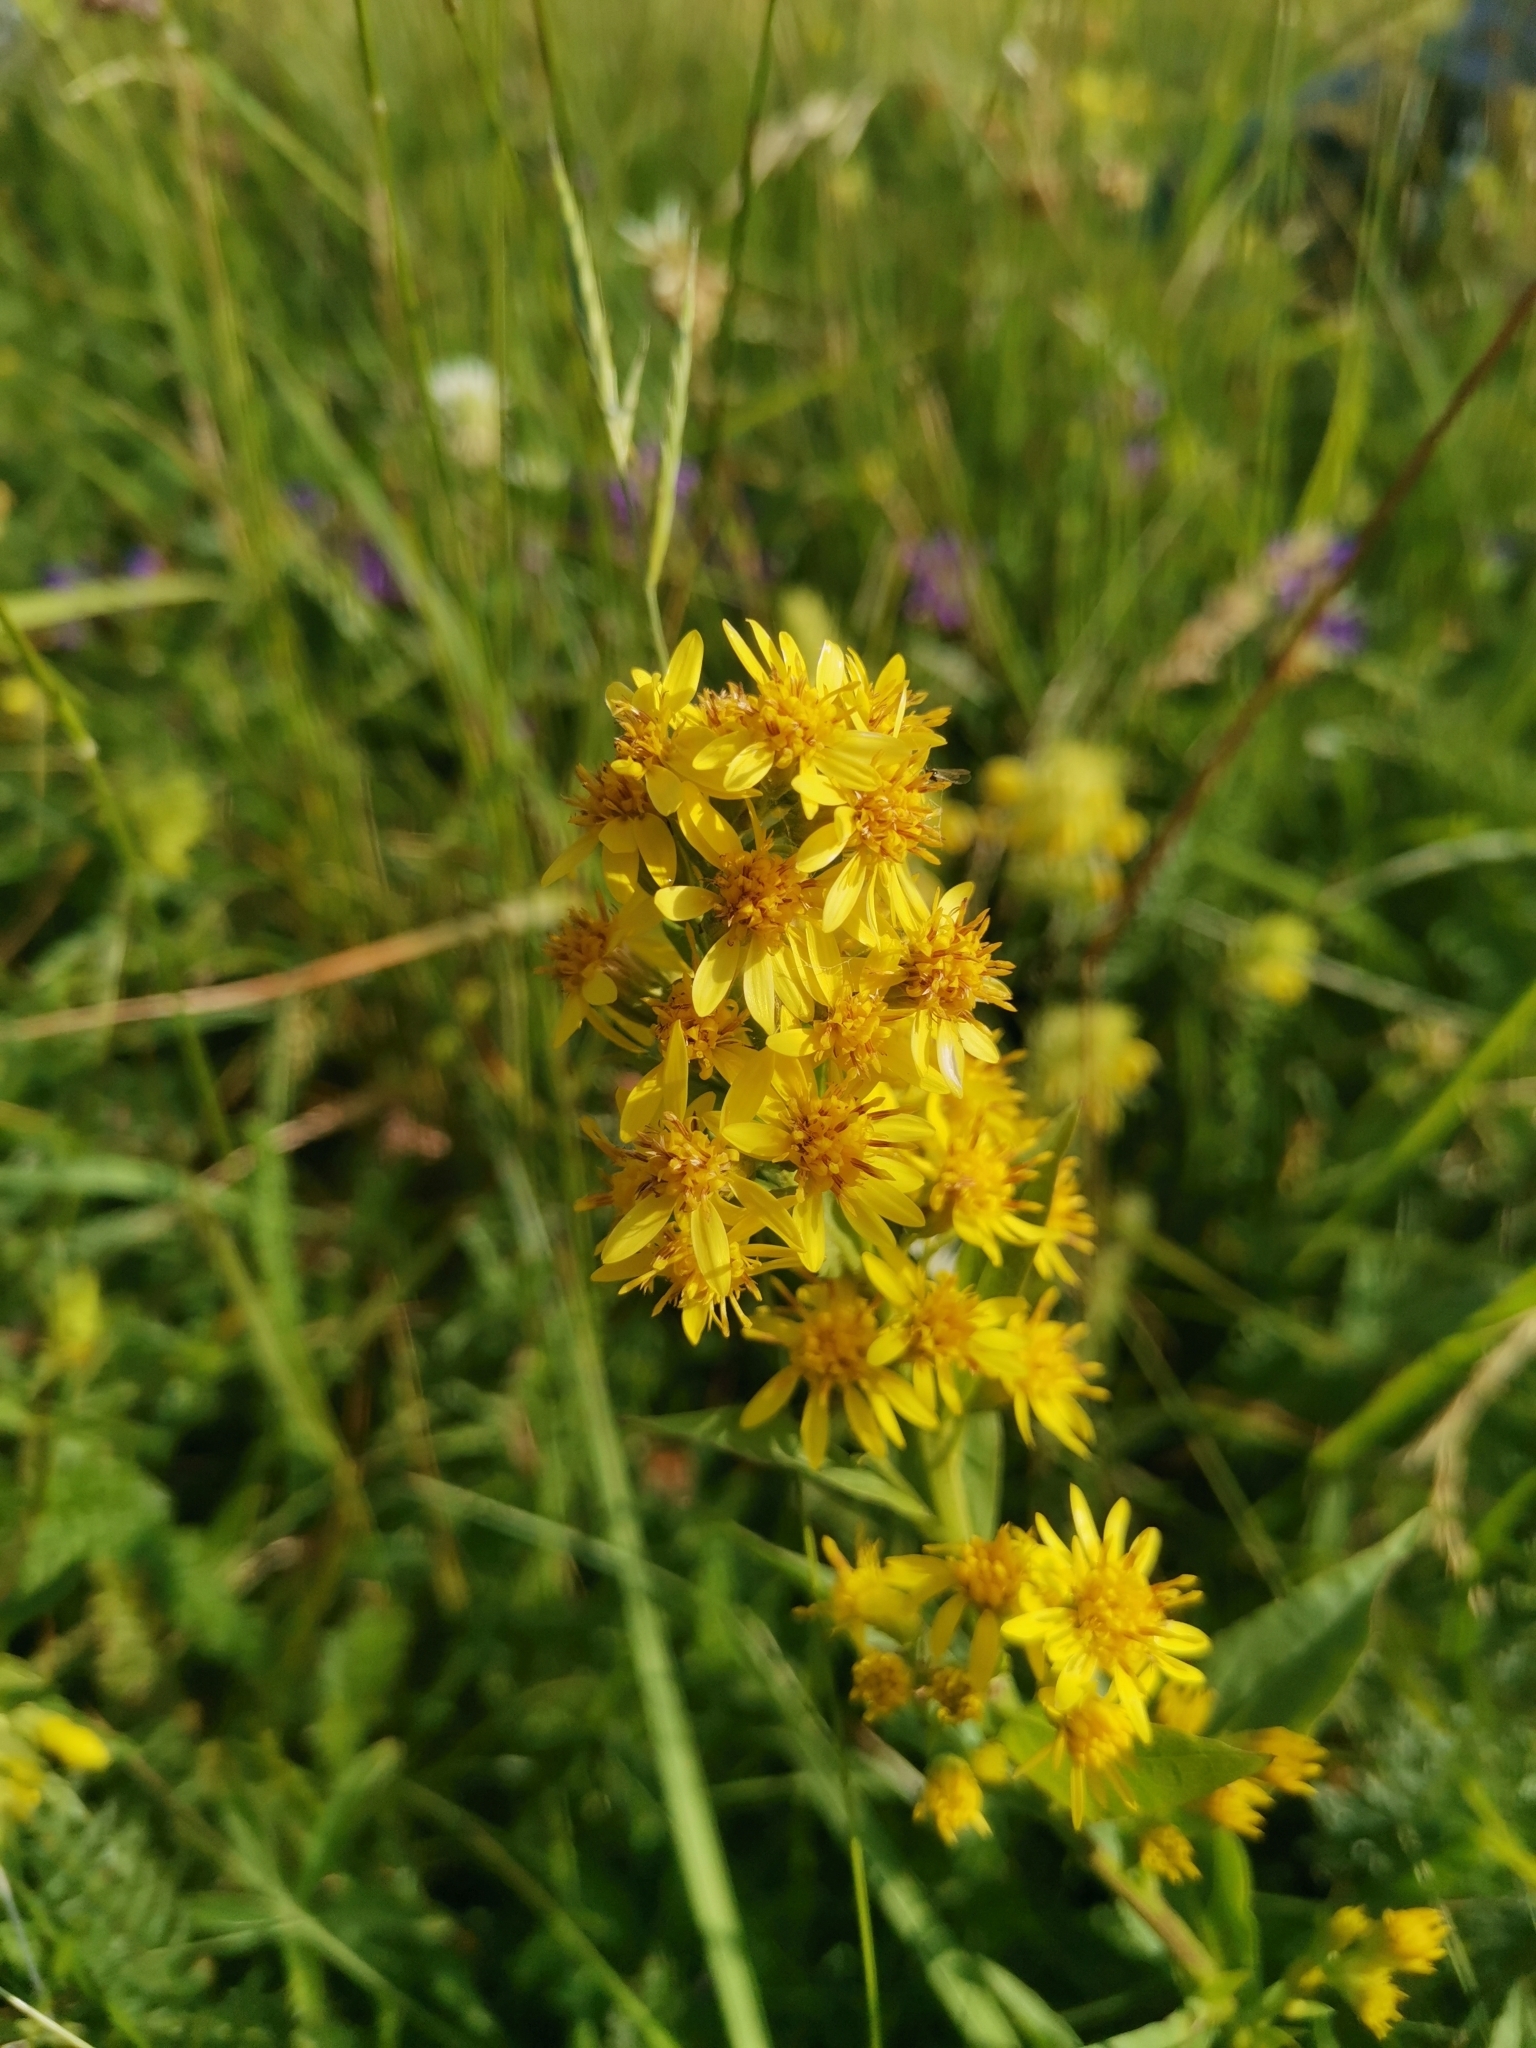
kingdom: Plantae
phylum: Tracheophyta
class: Magnoliopsida
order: Asterales
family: Asteraceae
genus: Solidago
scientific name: Solidago virgaurea
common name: Goldenrod
